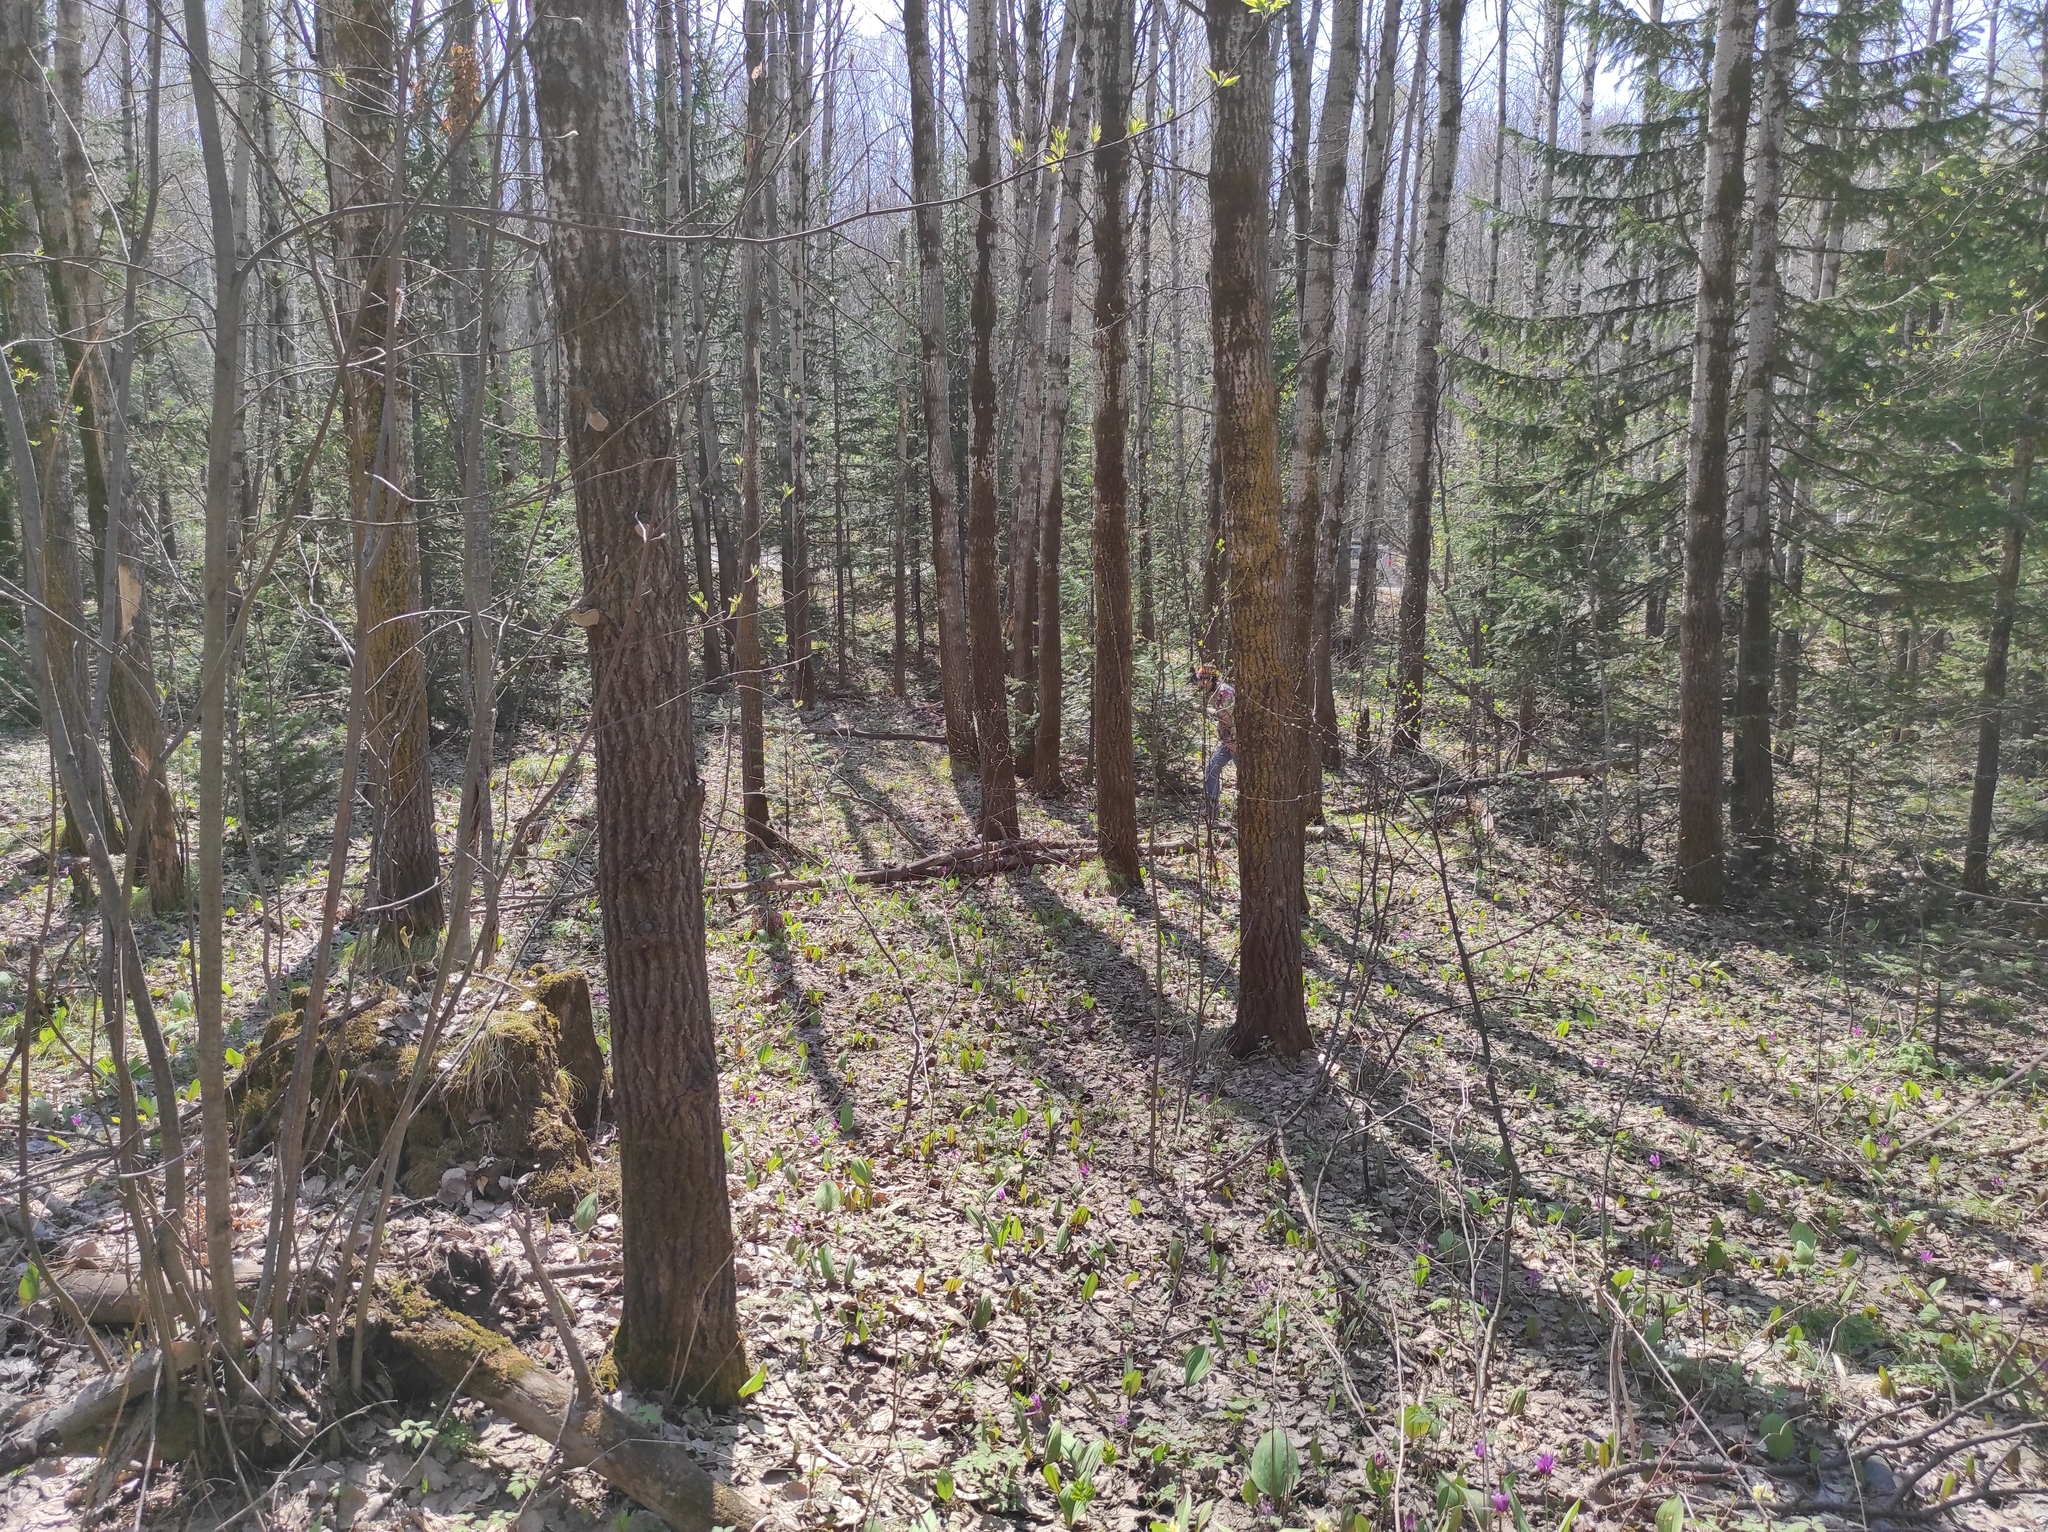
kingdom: Plantae
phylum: Tracheophyta
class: Pinopsida
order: Pinales
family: Pinaceae
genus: Abies
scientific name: Abies sibirica
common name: Siberian fir
